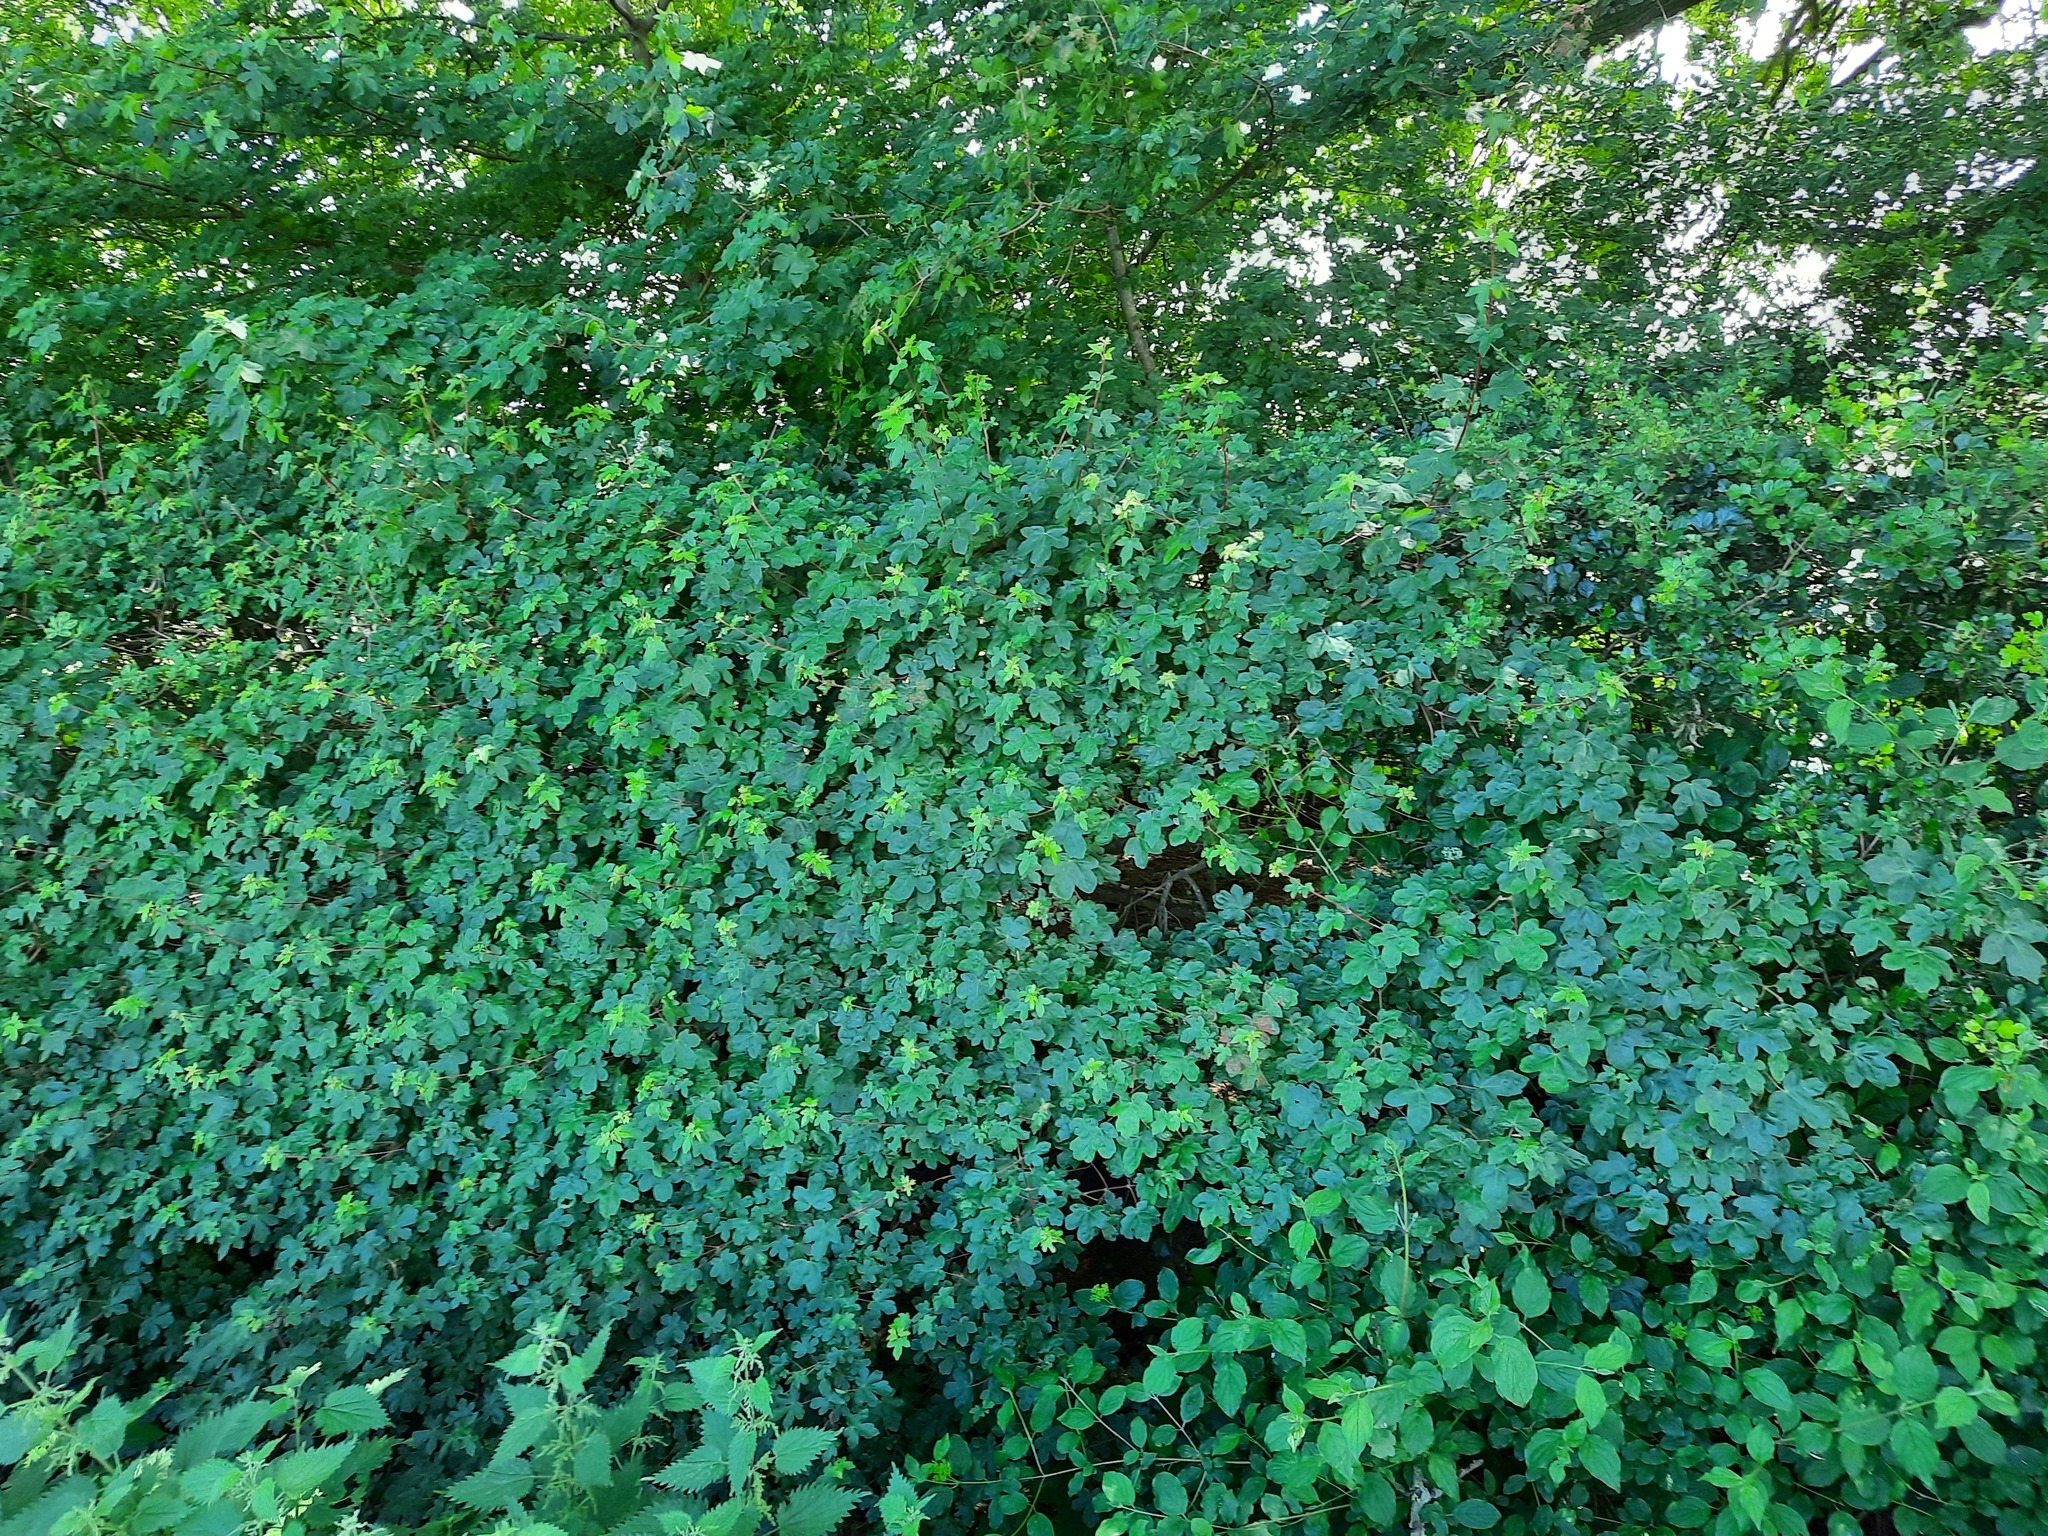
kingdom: Plantae
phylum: Tracheophyta
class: Magnoliopsida
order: Sapindales
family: Sapindaceae
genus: Acer
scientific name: Acer campestre
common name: Field maple
